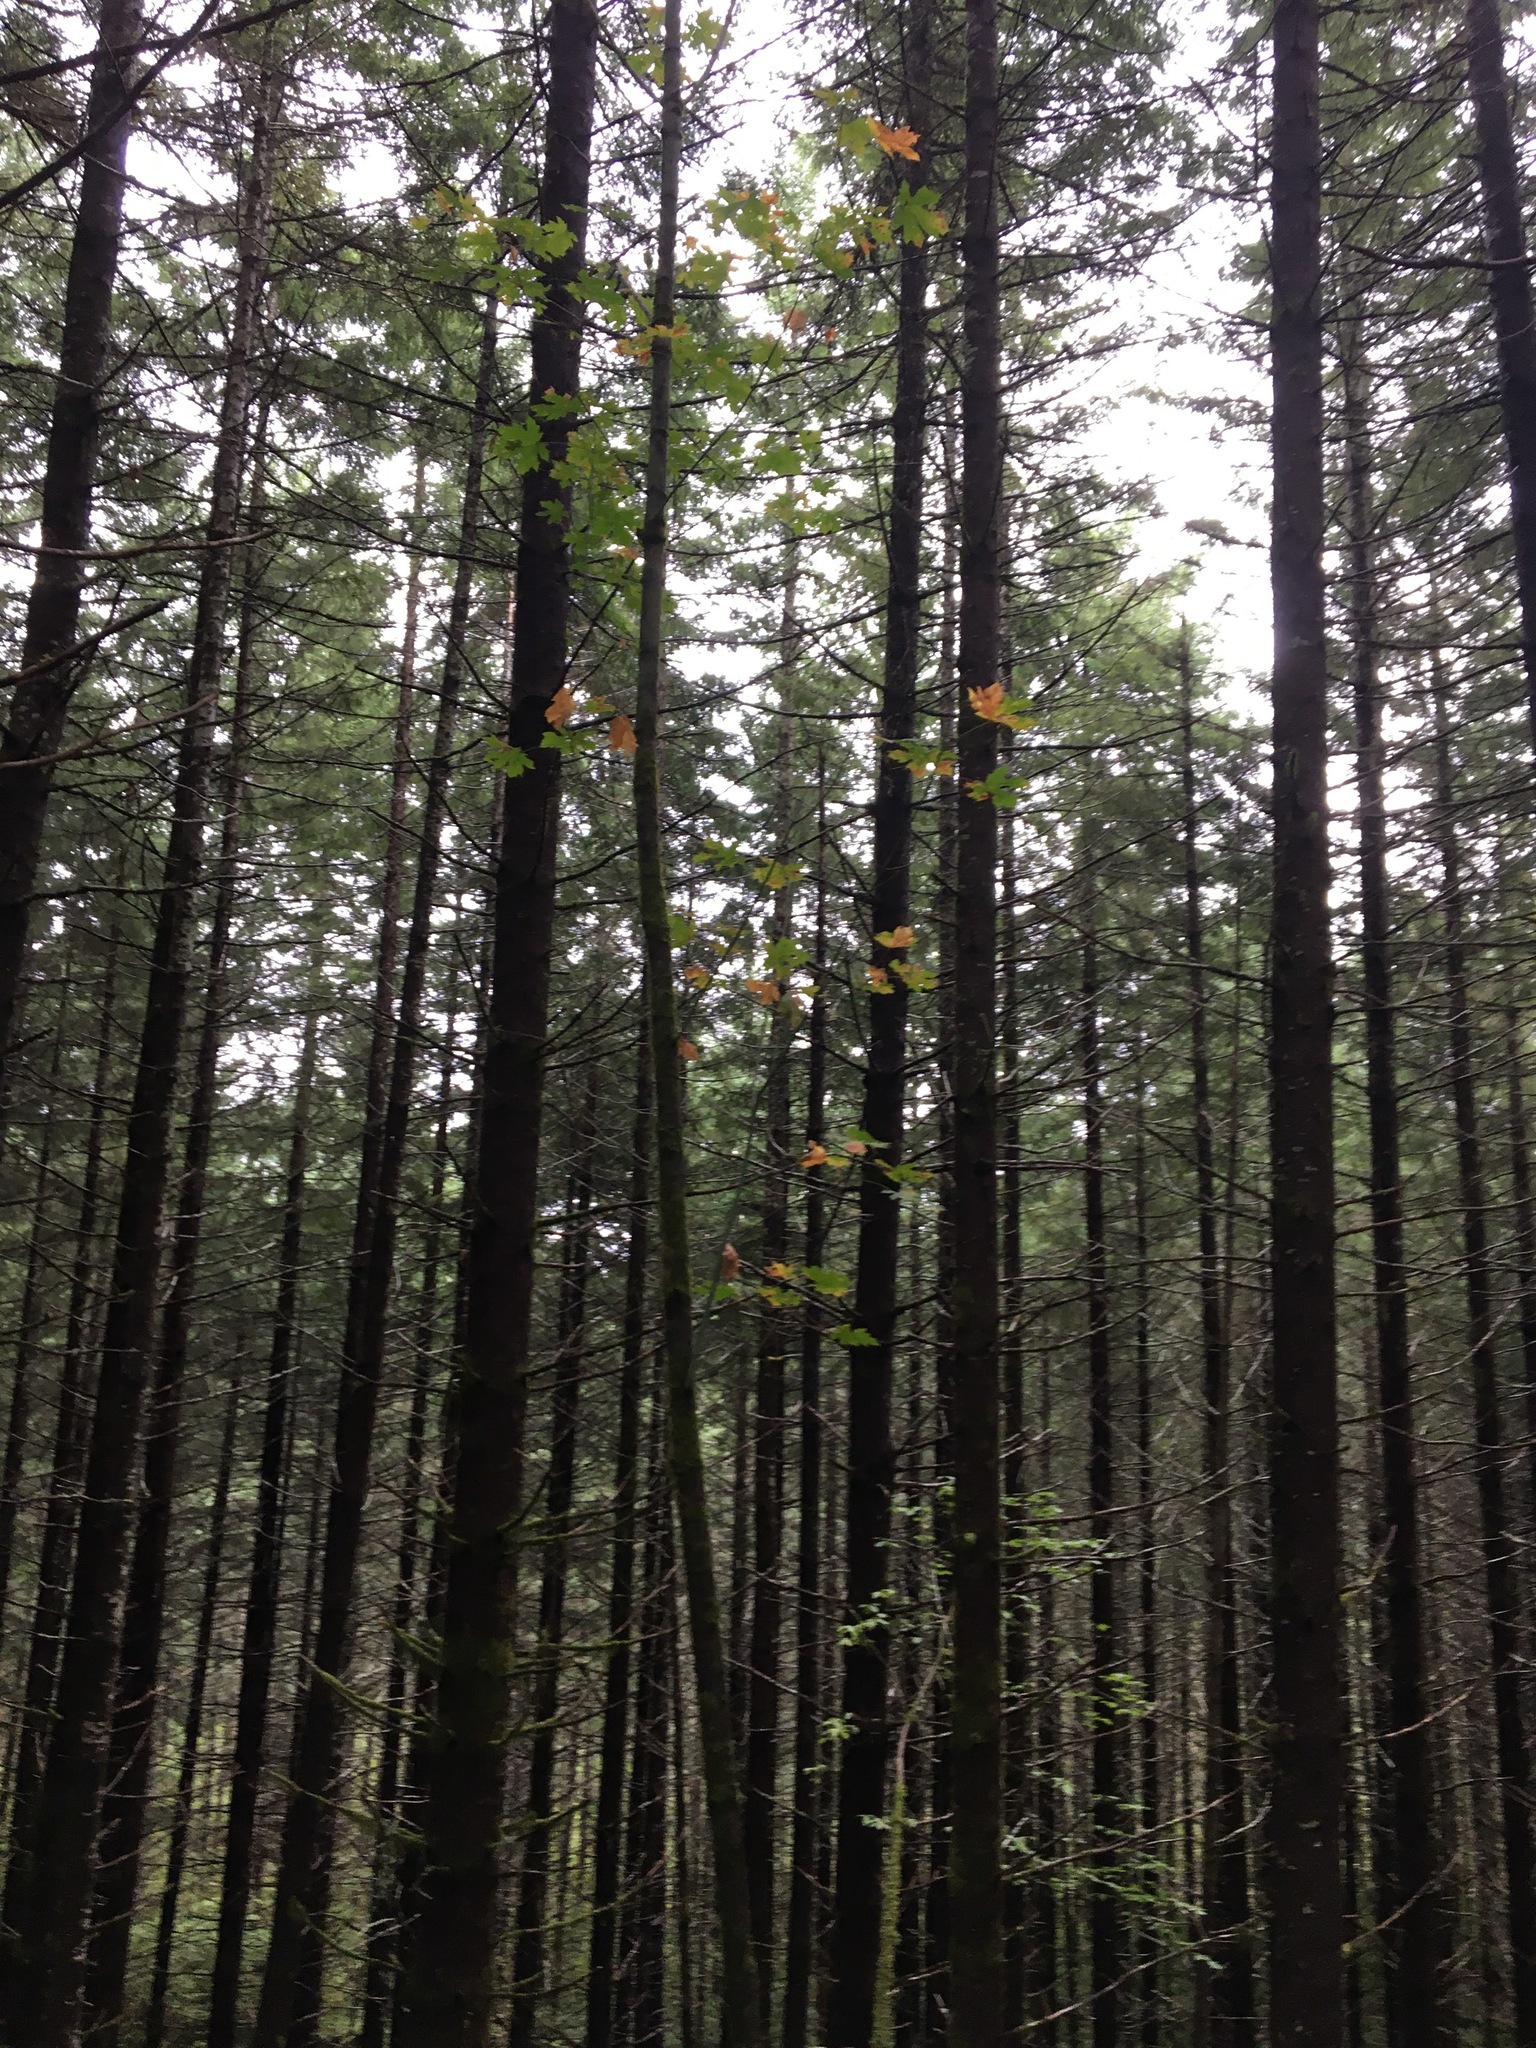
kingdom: Animalia
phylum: Arthropoda
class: Insecta
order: Hymenoptera
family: Apidae
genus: Bombus
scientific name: Bombus vosnesenskii
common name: Vosnesensky bumble bee
